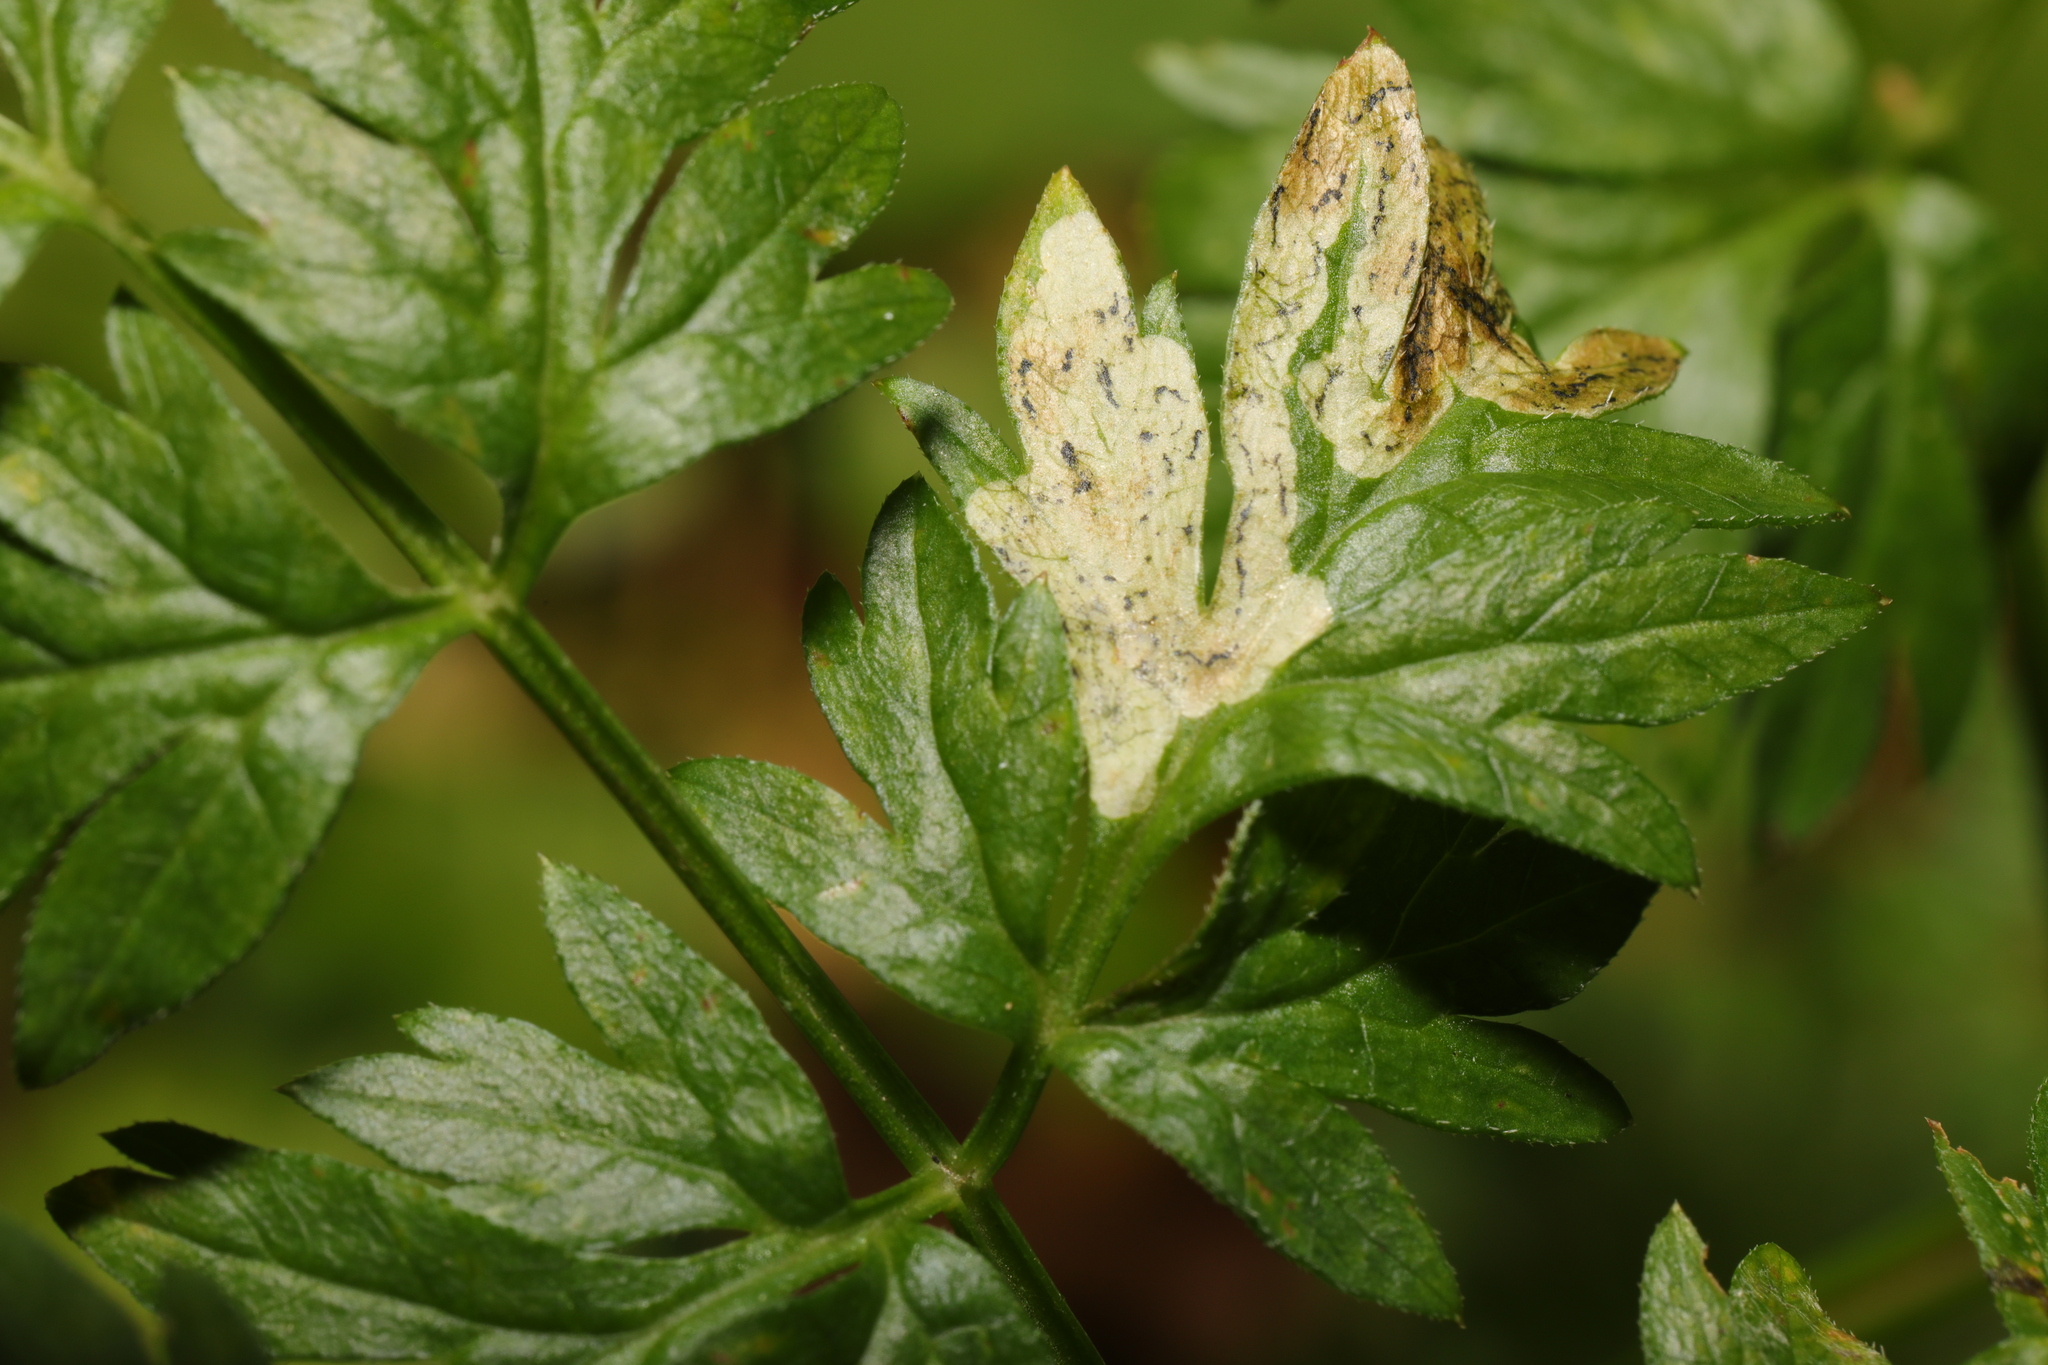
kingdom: Animalia
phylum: Arthropoda
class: Insecta
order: Diptera
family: Agromyzidae
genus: Phytomyza
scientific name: Phytomyza chaerophylli
